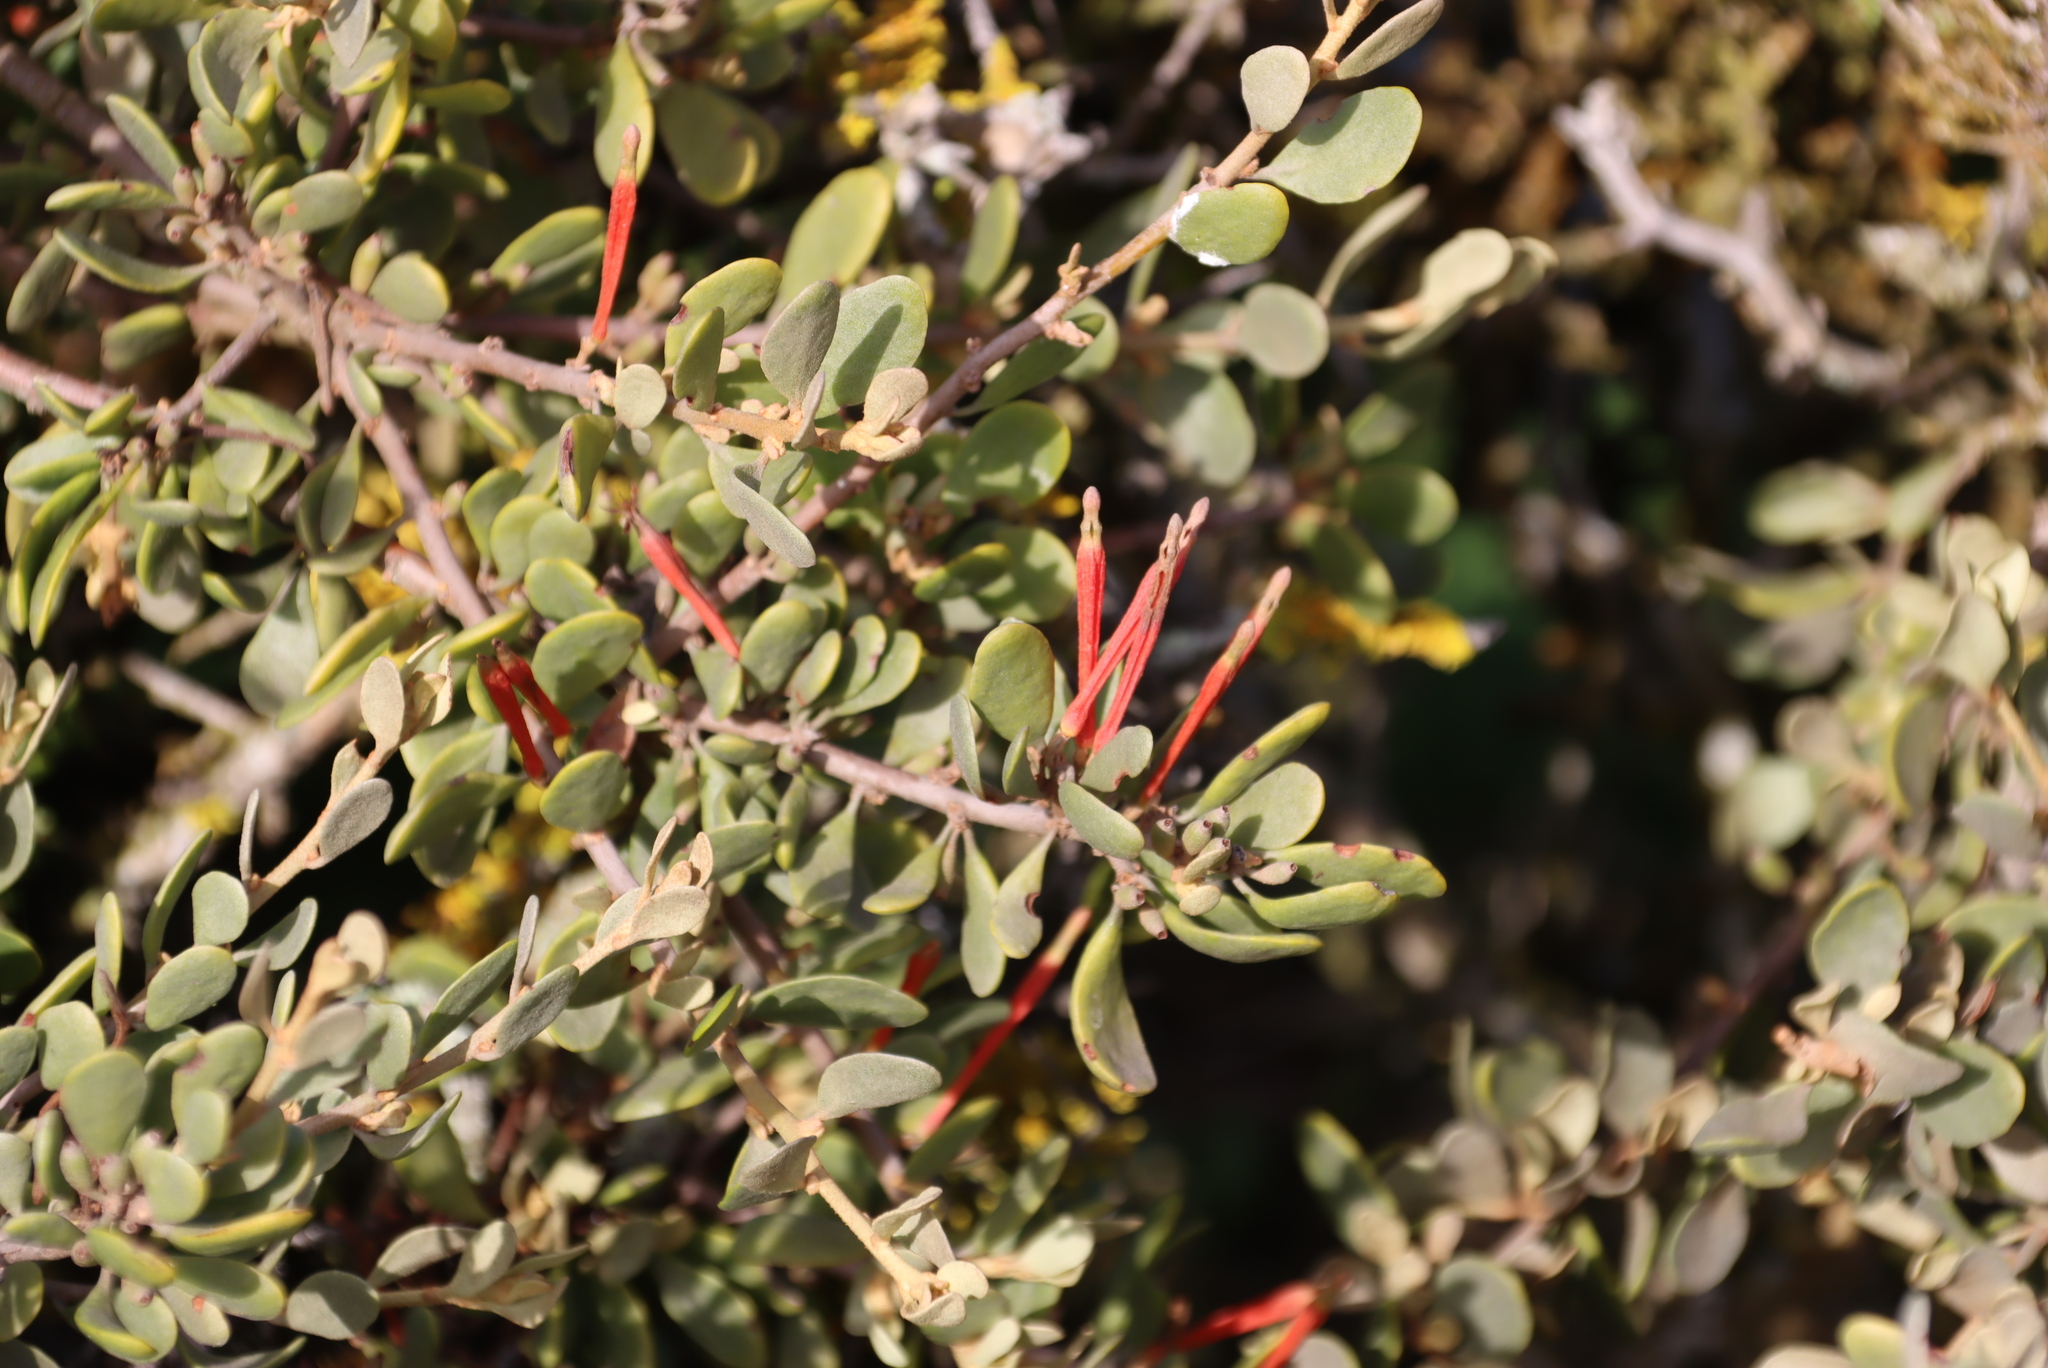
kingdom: Plantae
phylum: Tracheophyta
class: Magnoliopsida
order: Santalales
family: Loranthaceae
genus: Septulina
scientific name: Septulina glauca
